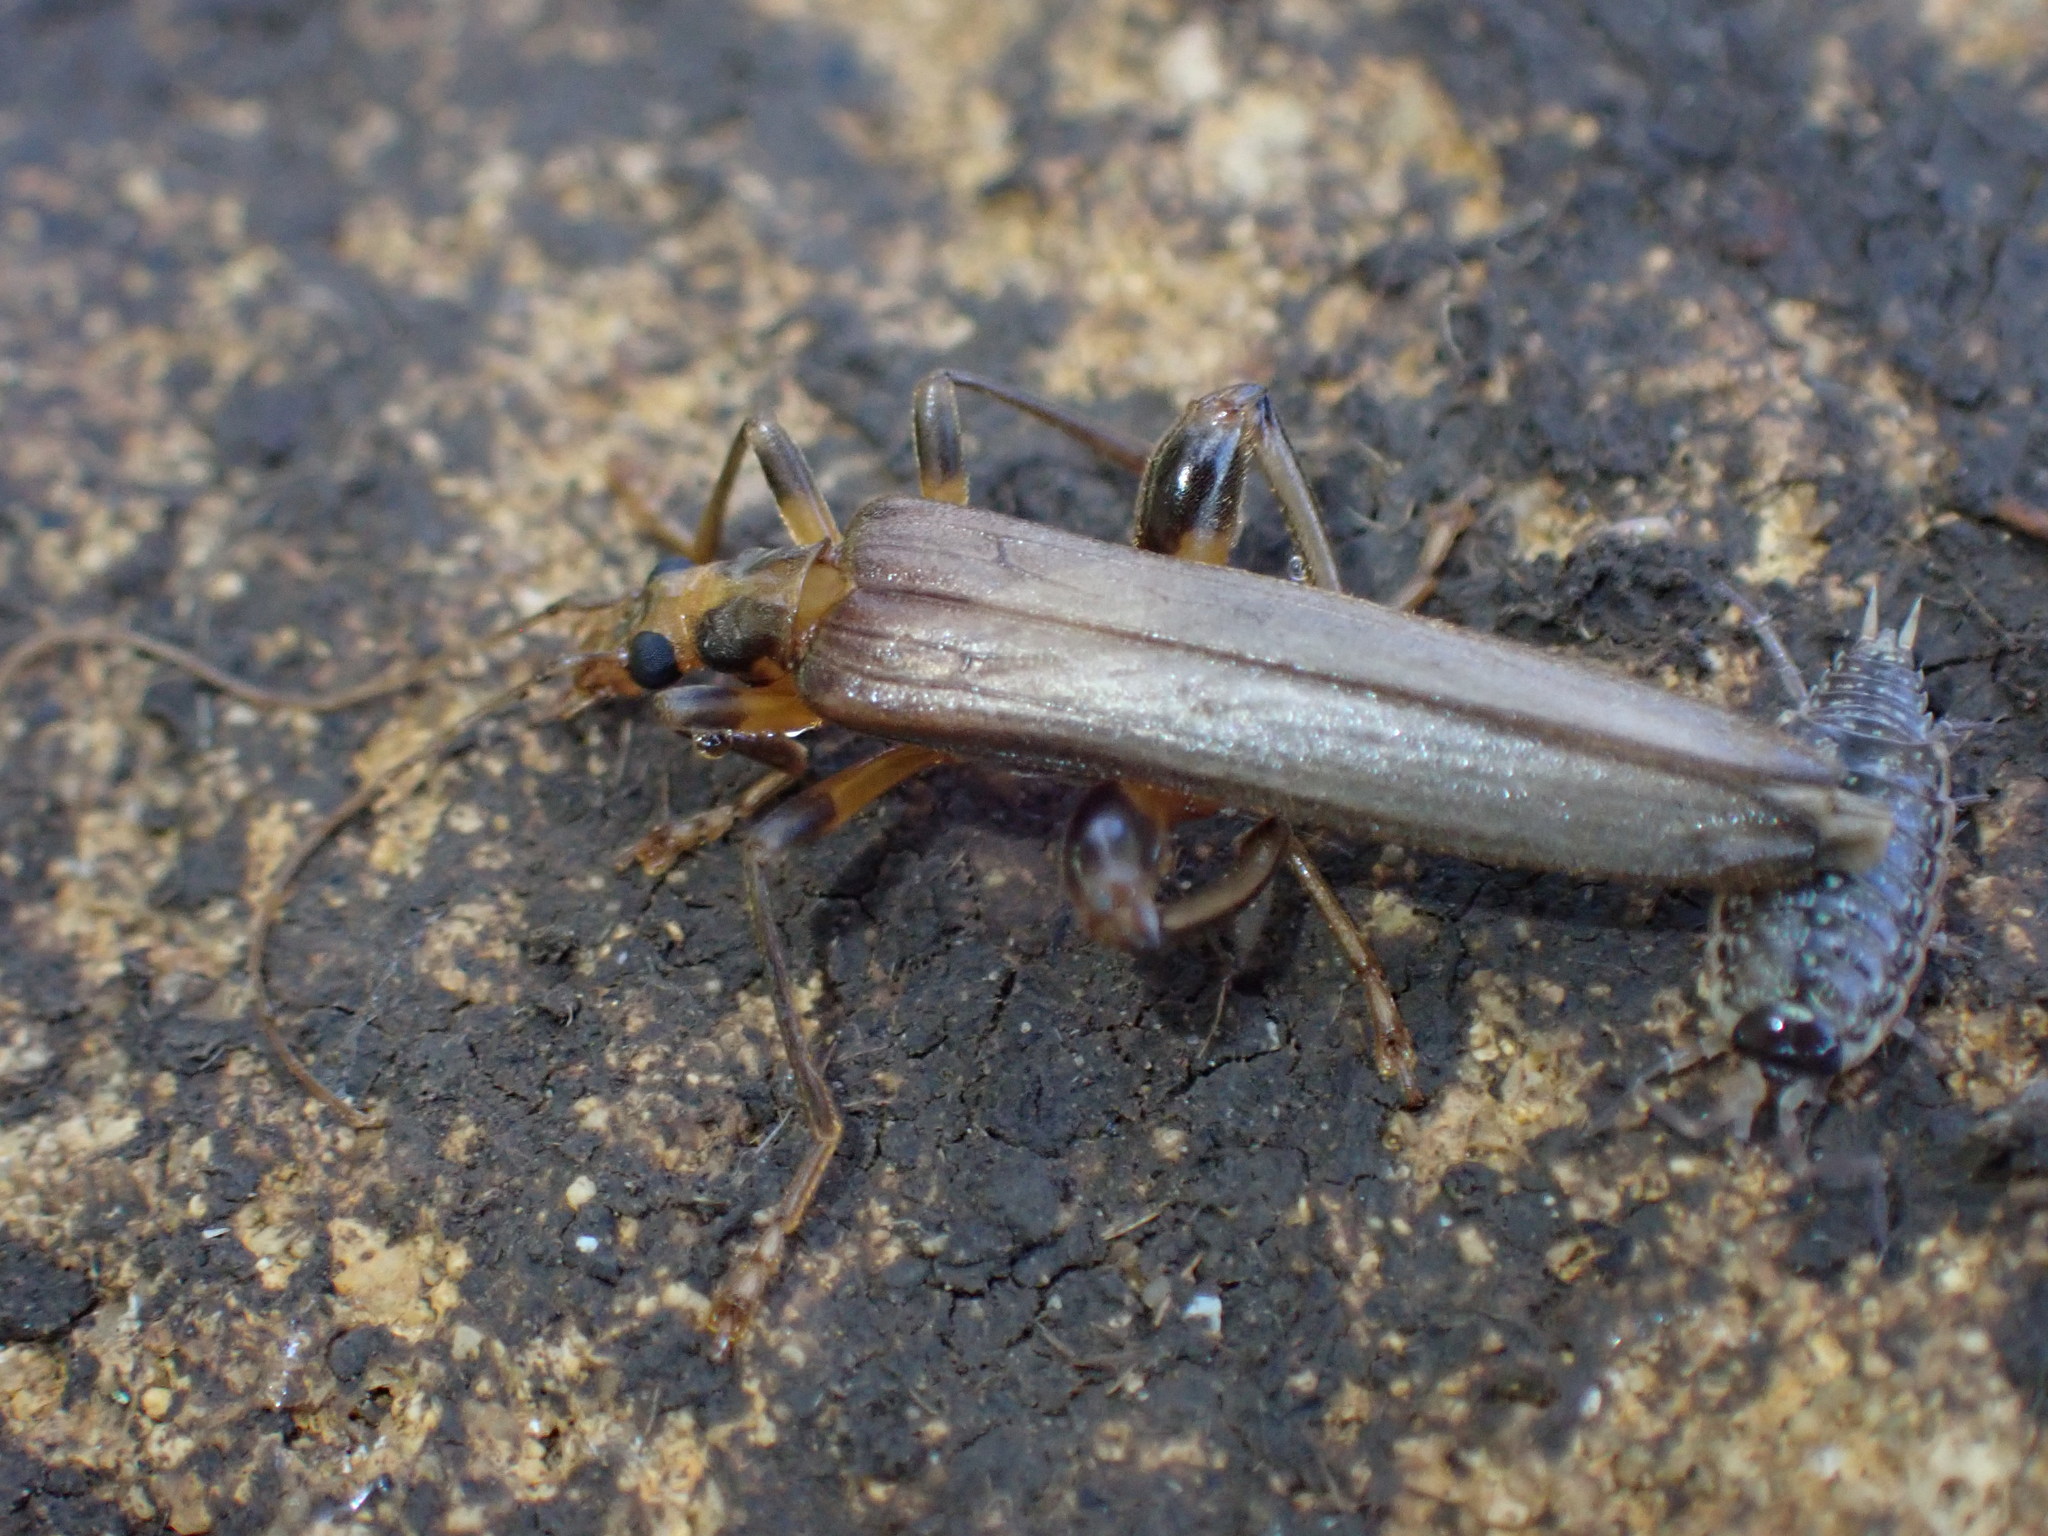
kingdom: Animalia
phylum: Arthropoda
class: Insecta
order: Coleoptera
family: Oedemeridae
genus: Oedemera
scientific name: Oedemera femoralis
